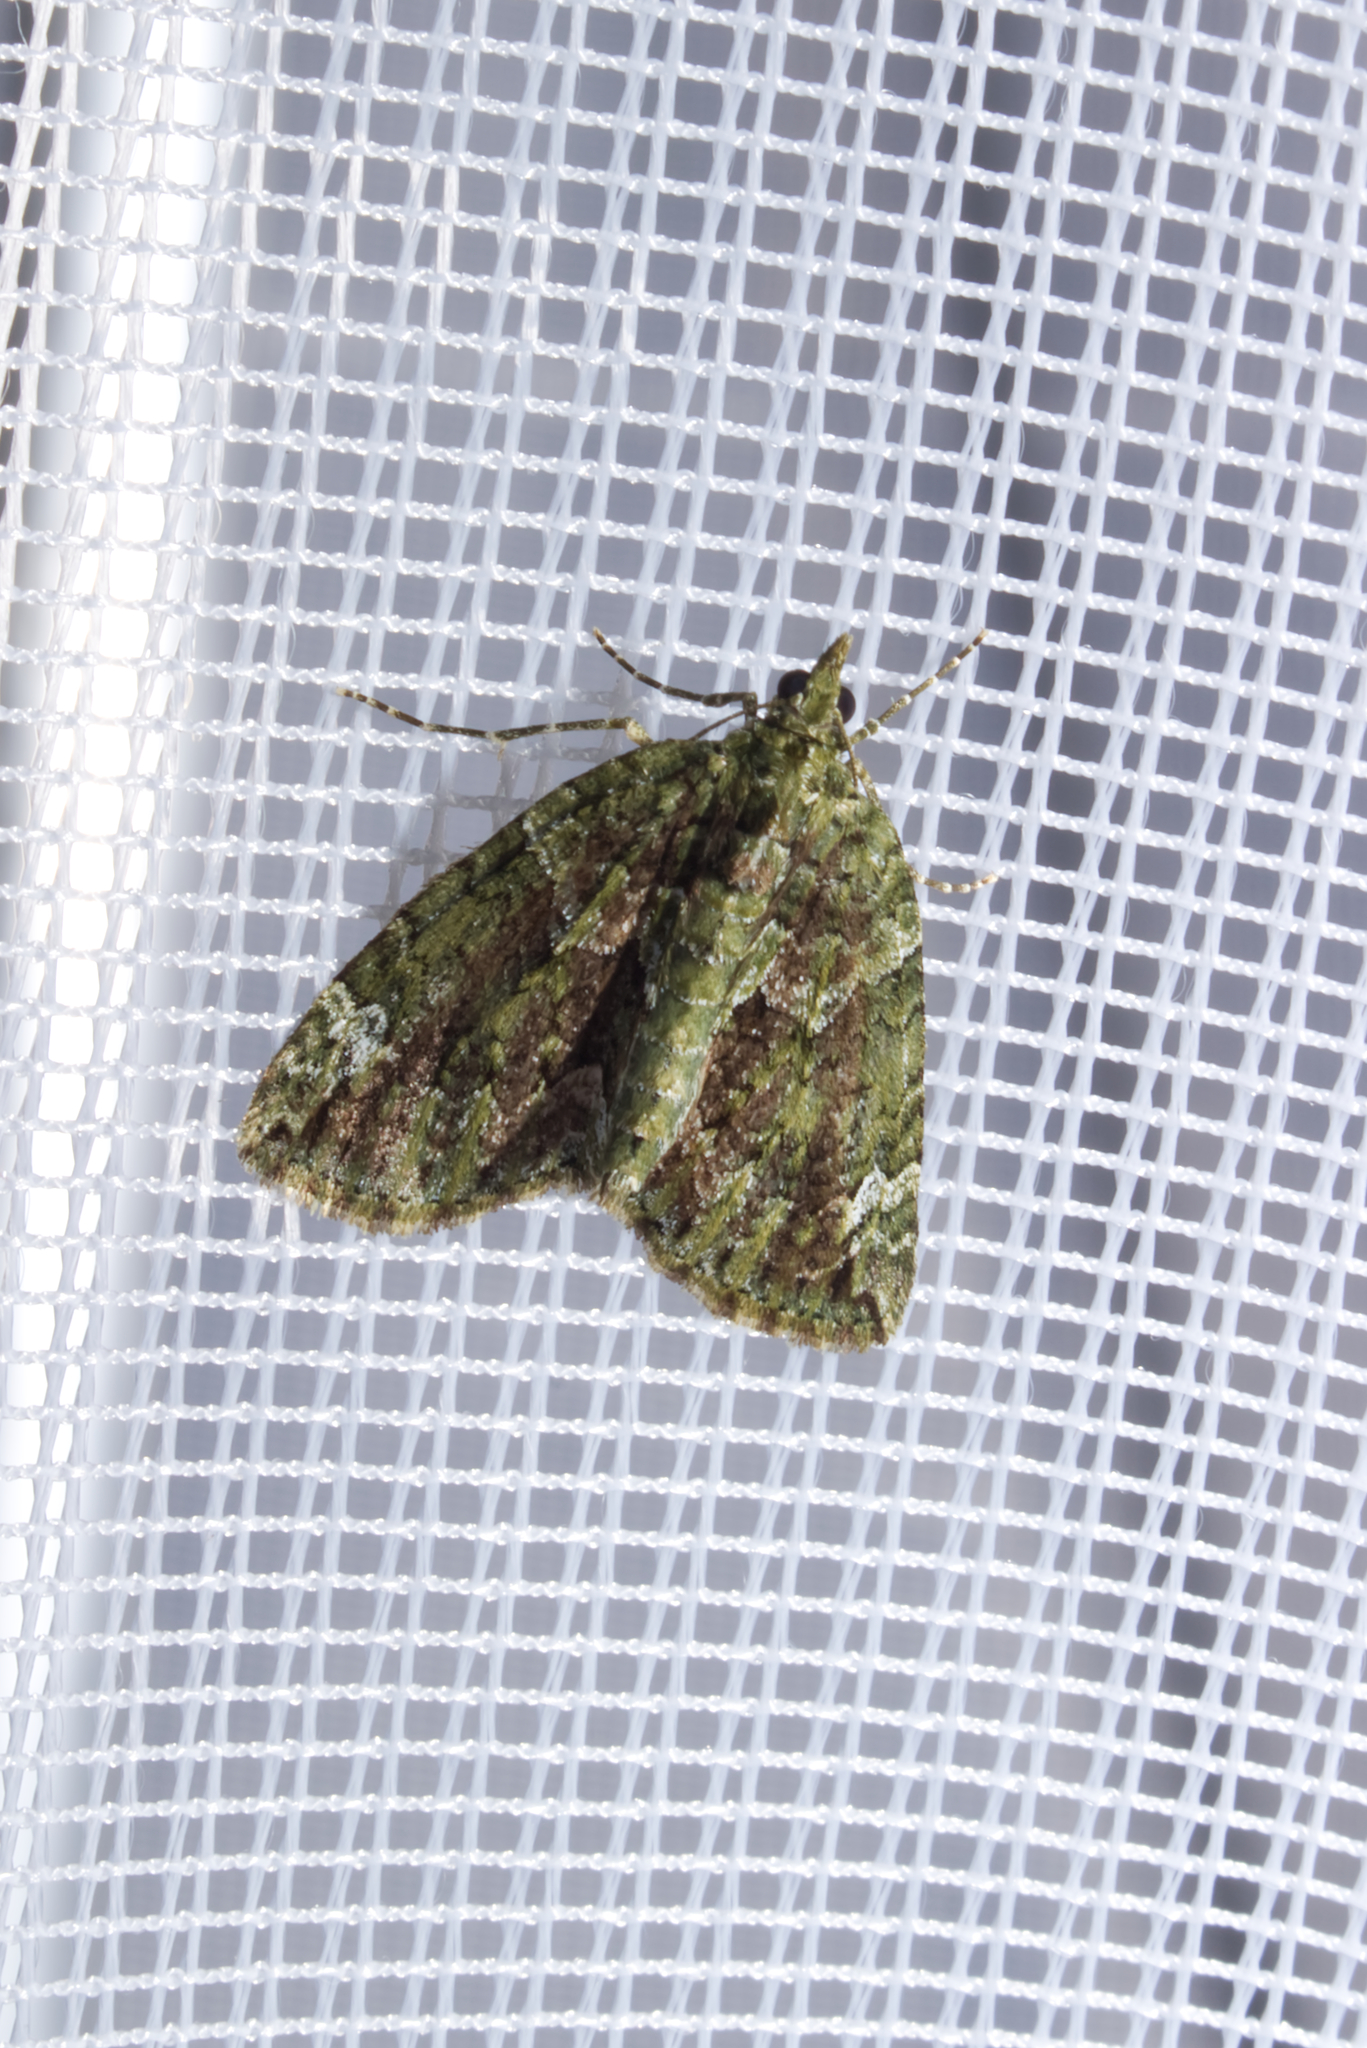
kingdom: Animalia
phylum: Arthropoda
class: Insecta
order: Lepidoptera
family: Geometridae
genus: Chloroclysta
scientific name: Chloroclysta siterata
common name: Red-green carpet
